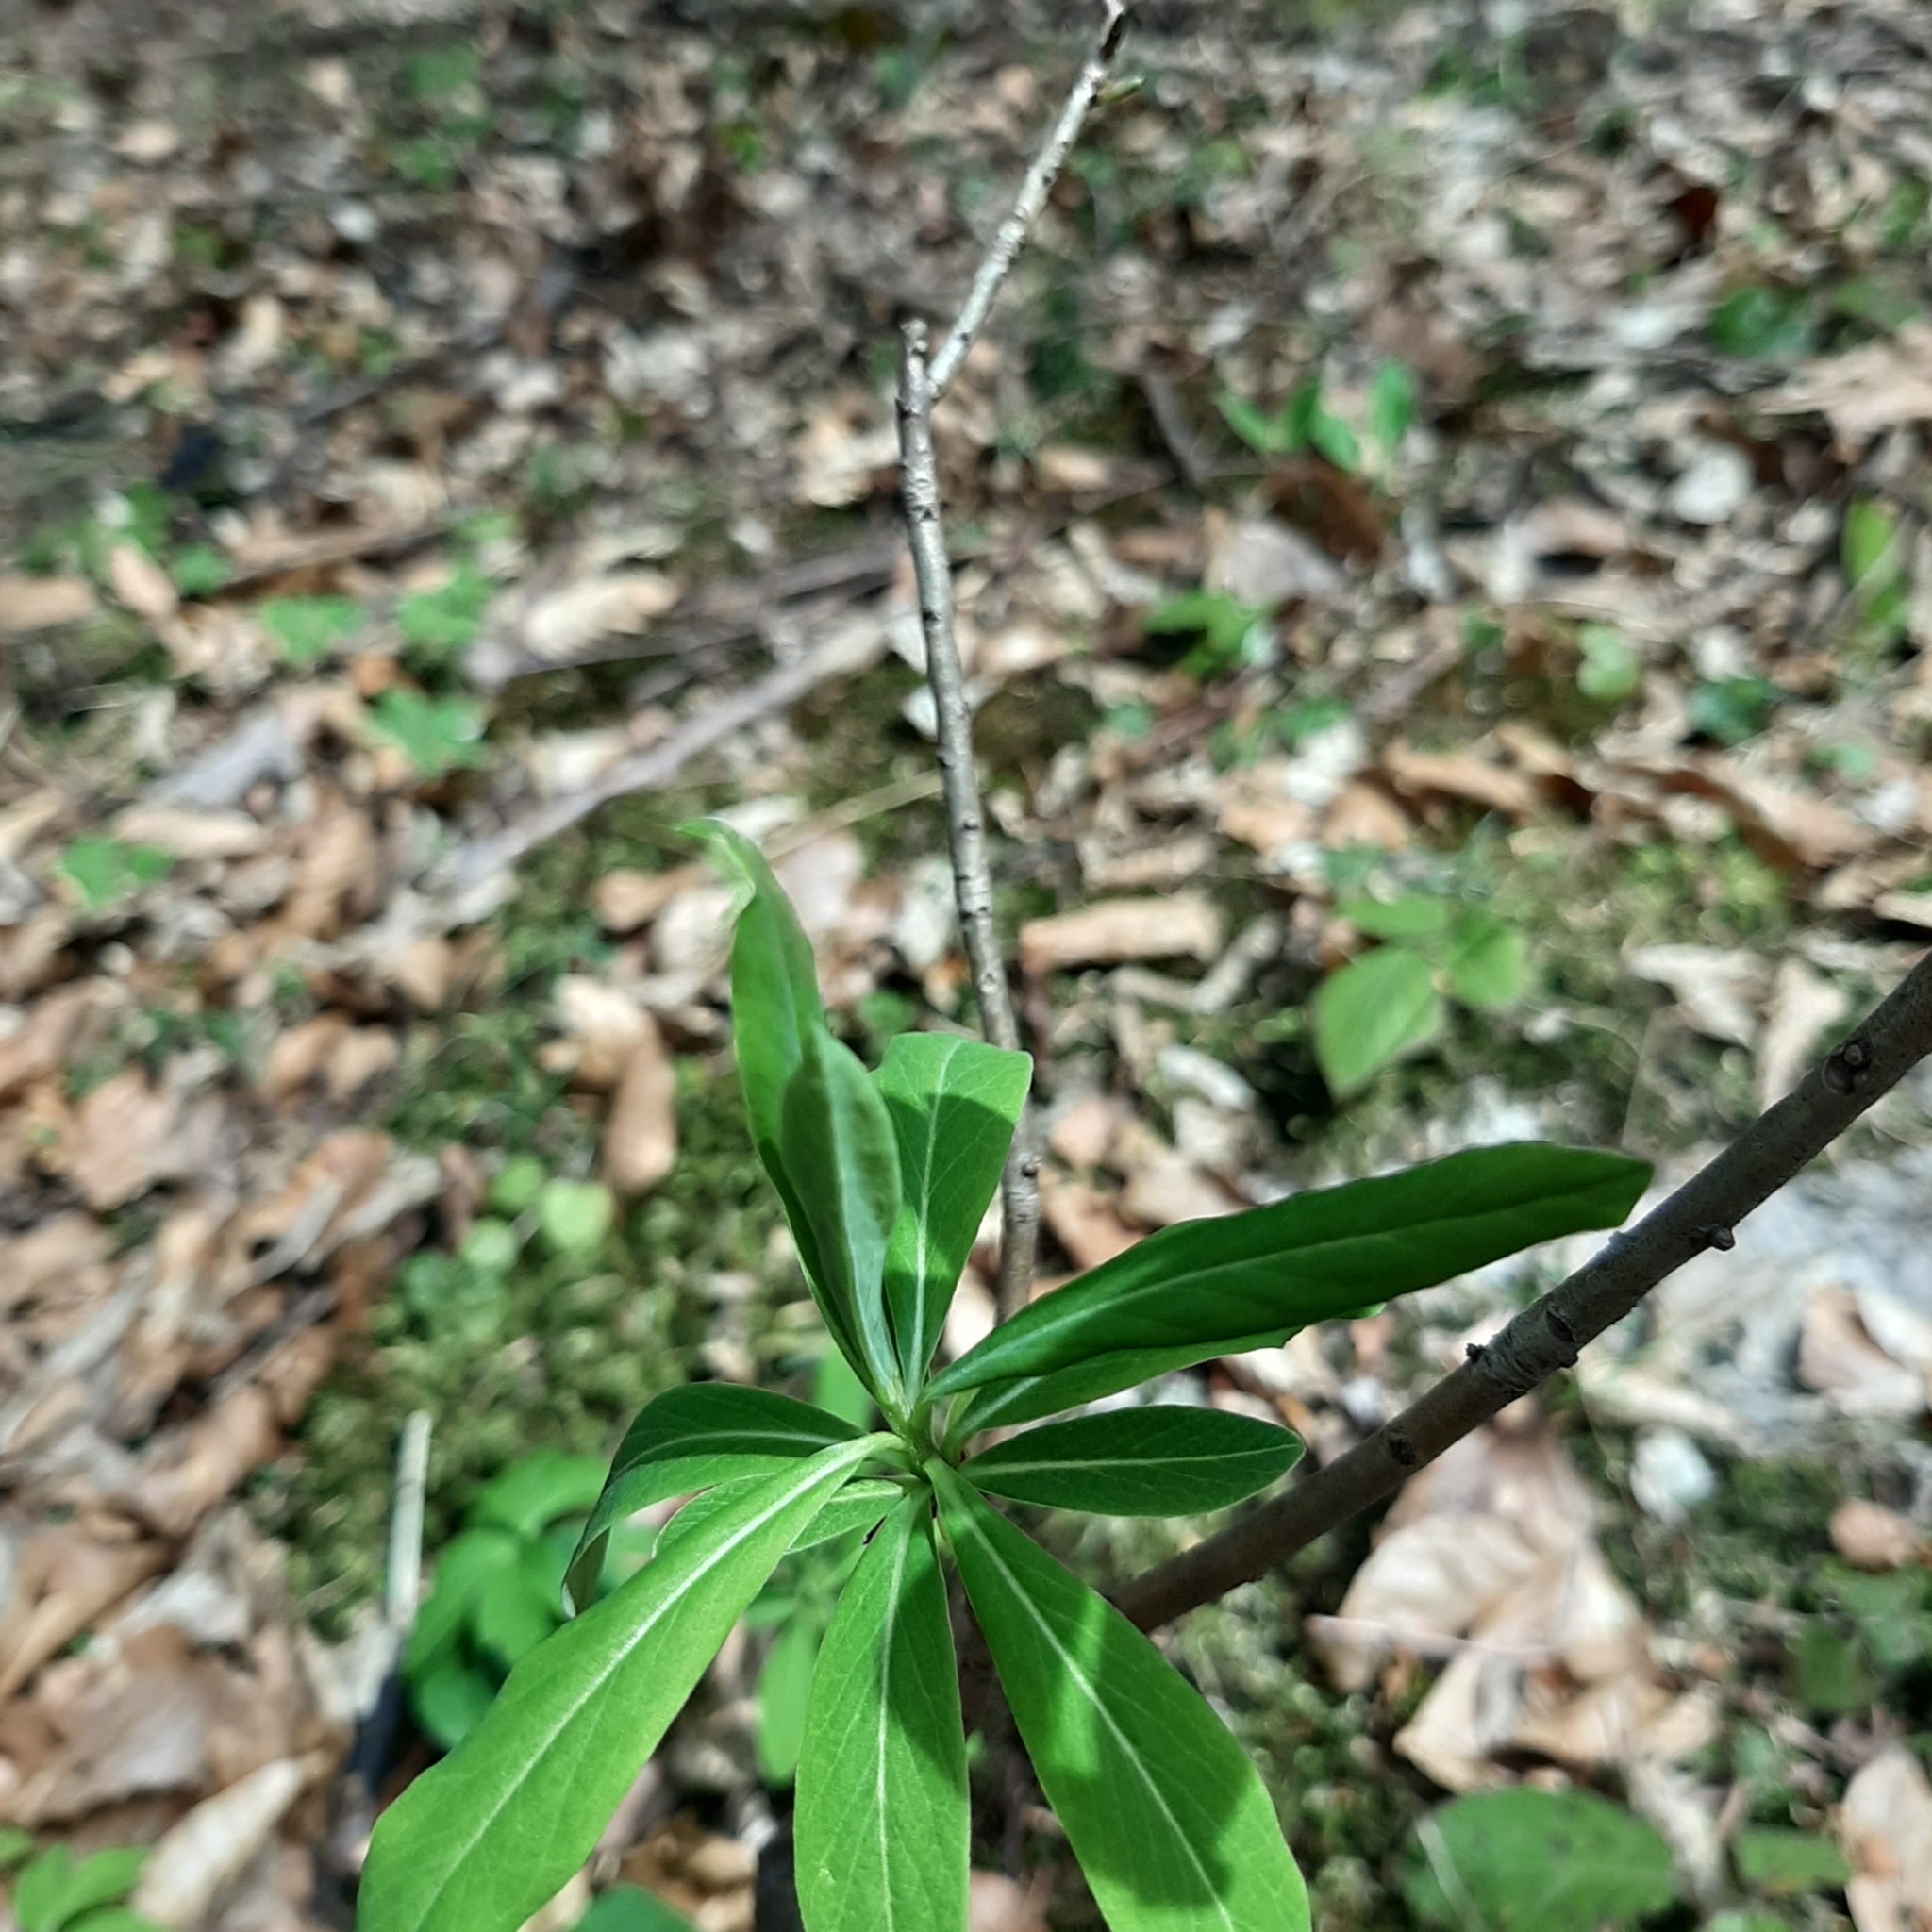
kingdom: Plantae
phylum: Tracheophyta
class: Magnoliopsida
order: Malvales
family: Thymelaeaceae
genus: Daphne
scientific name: Daphne mezereum
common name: Mezereon
